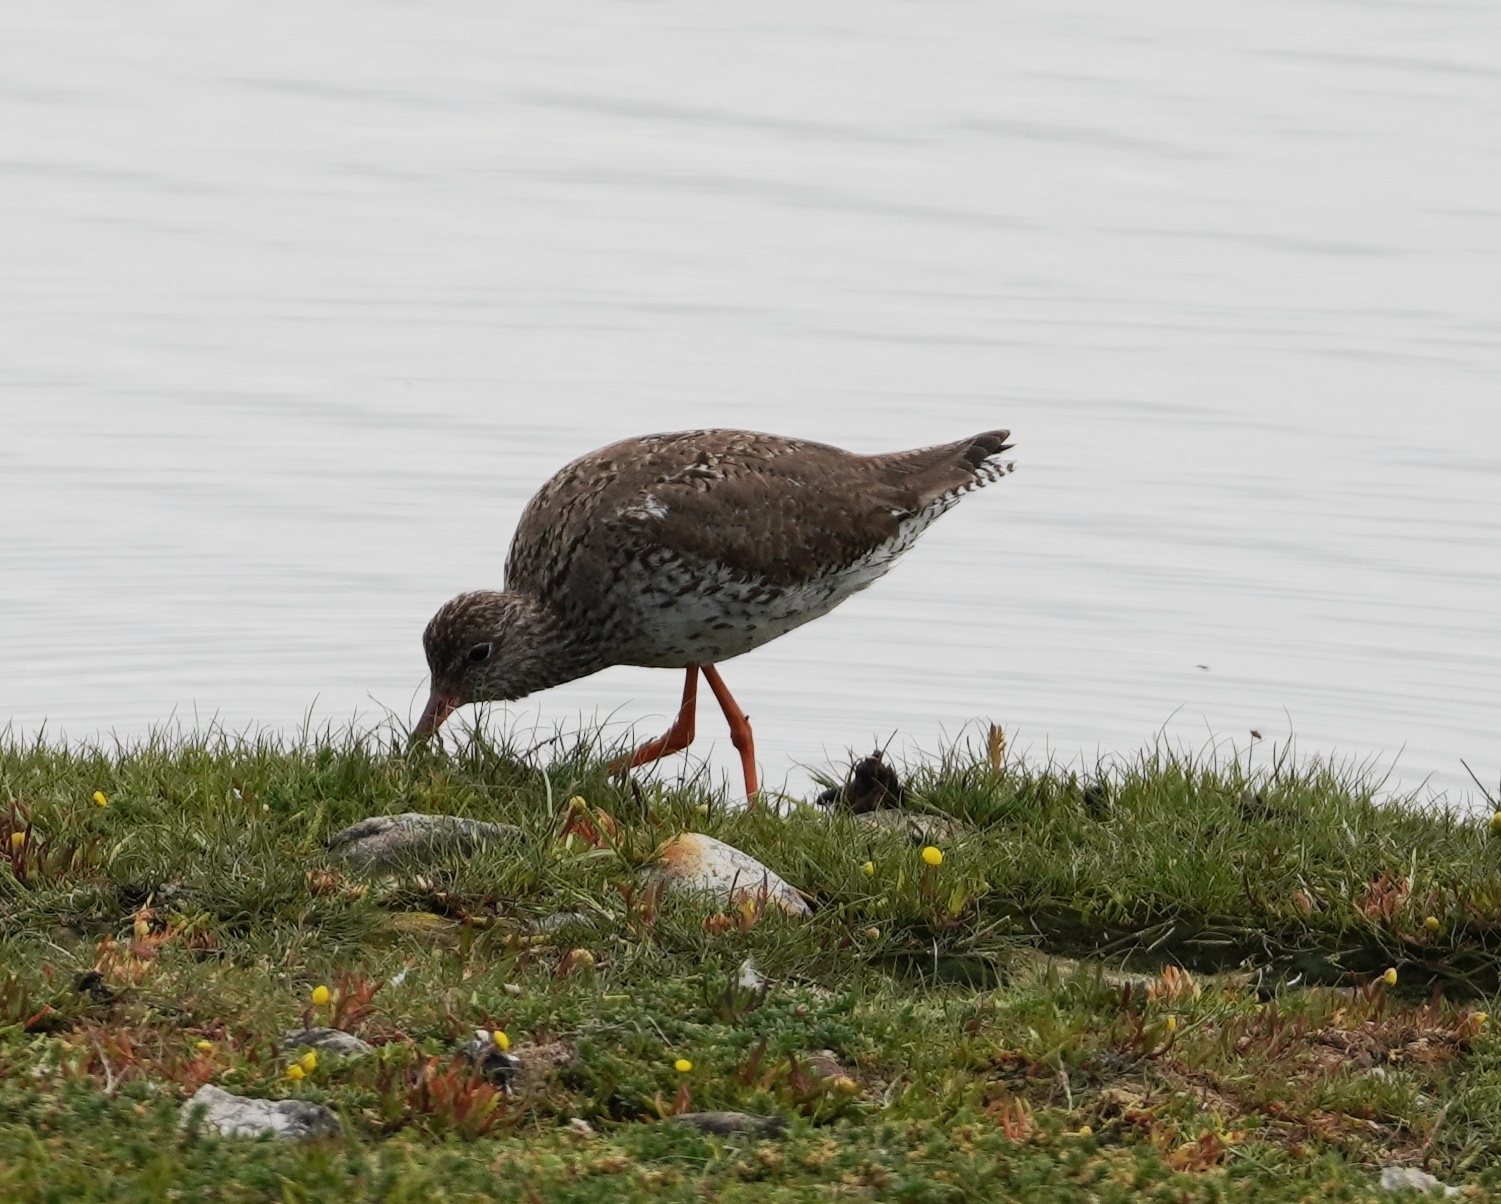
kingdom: Animalia
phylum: Chordata
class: Aves
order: Charadriiformes
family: Scolopacidae
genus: Tringa
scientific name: Tringa totanus
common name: Common redshank
